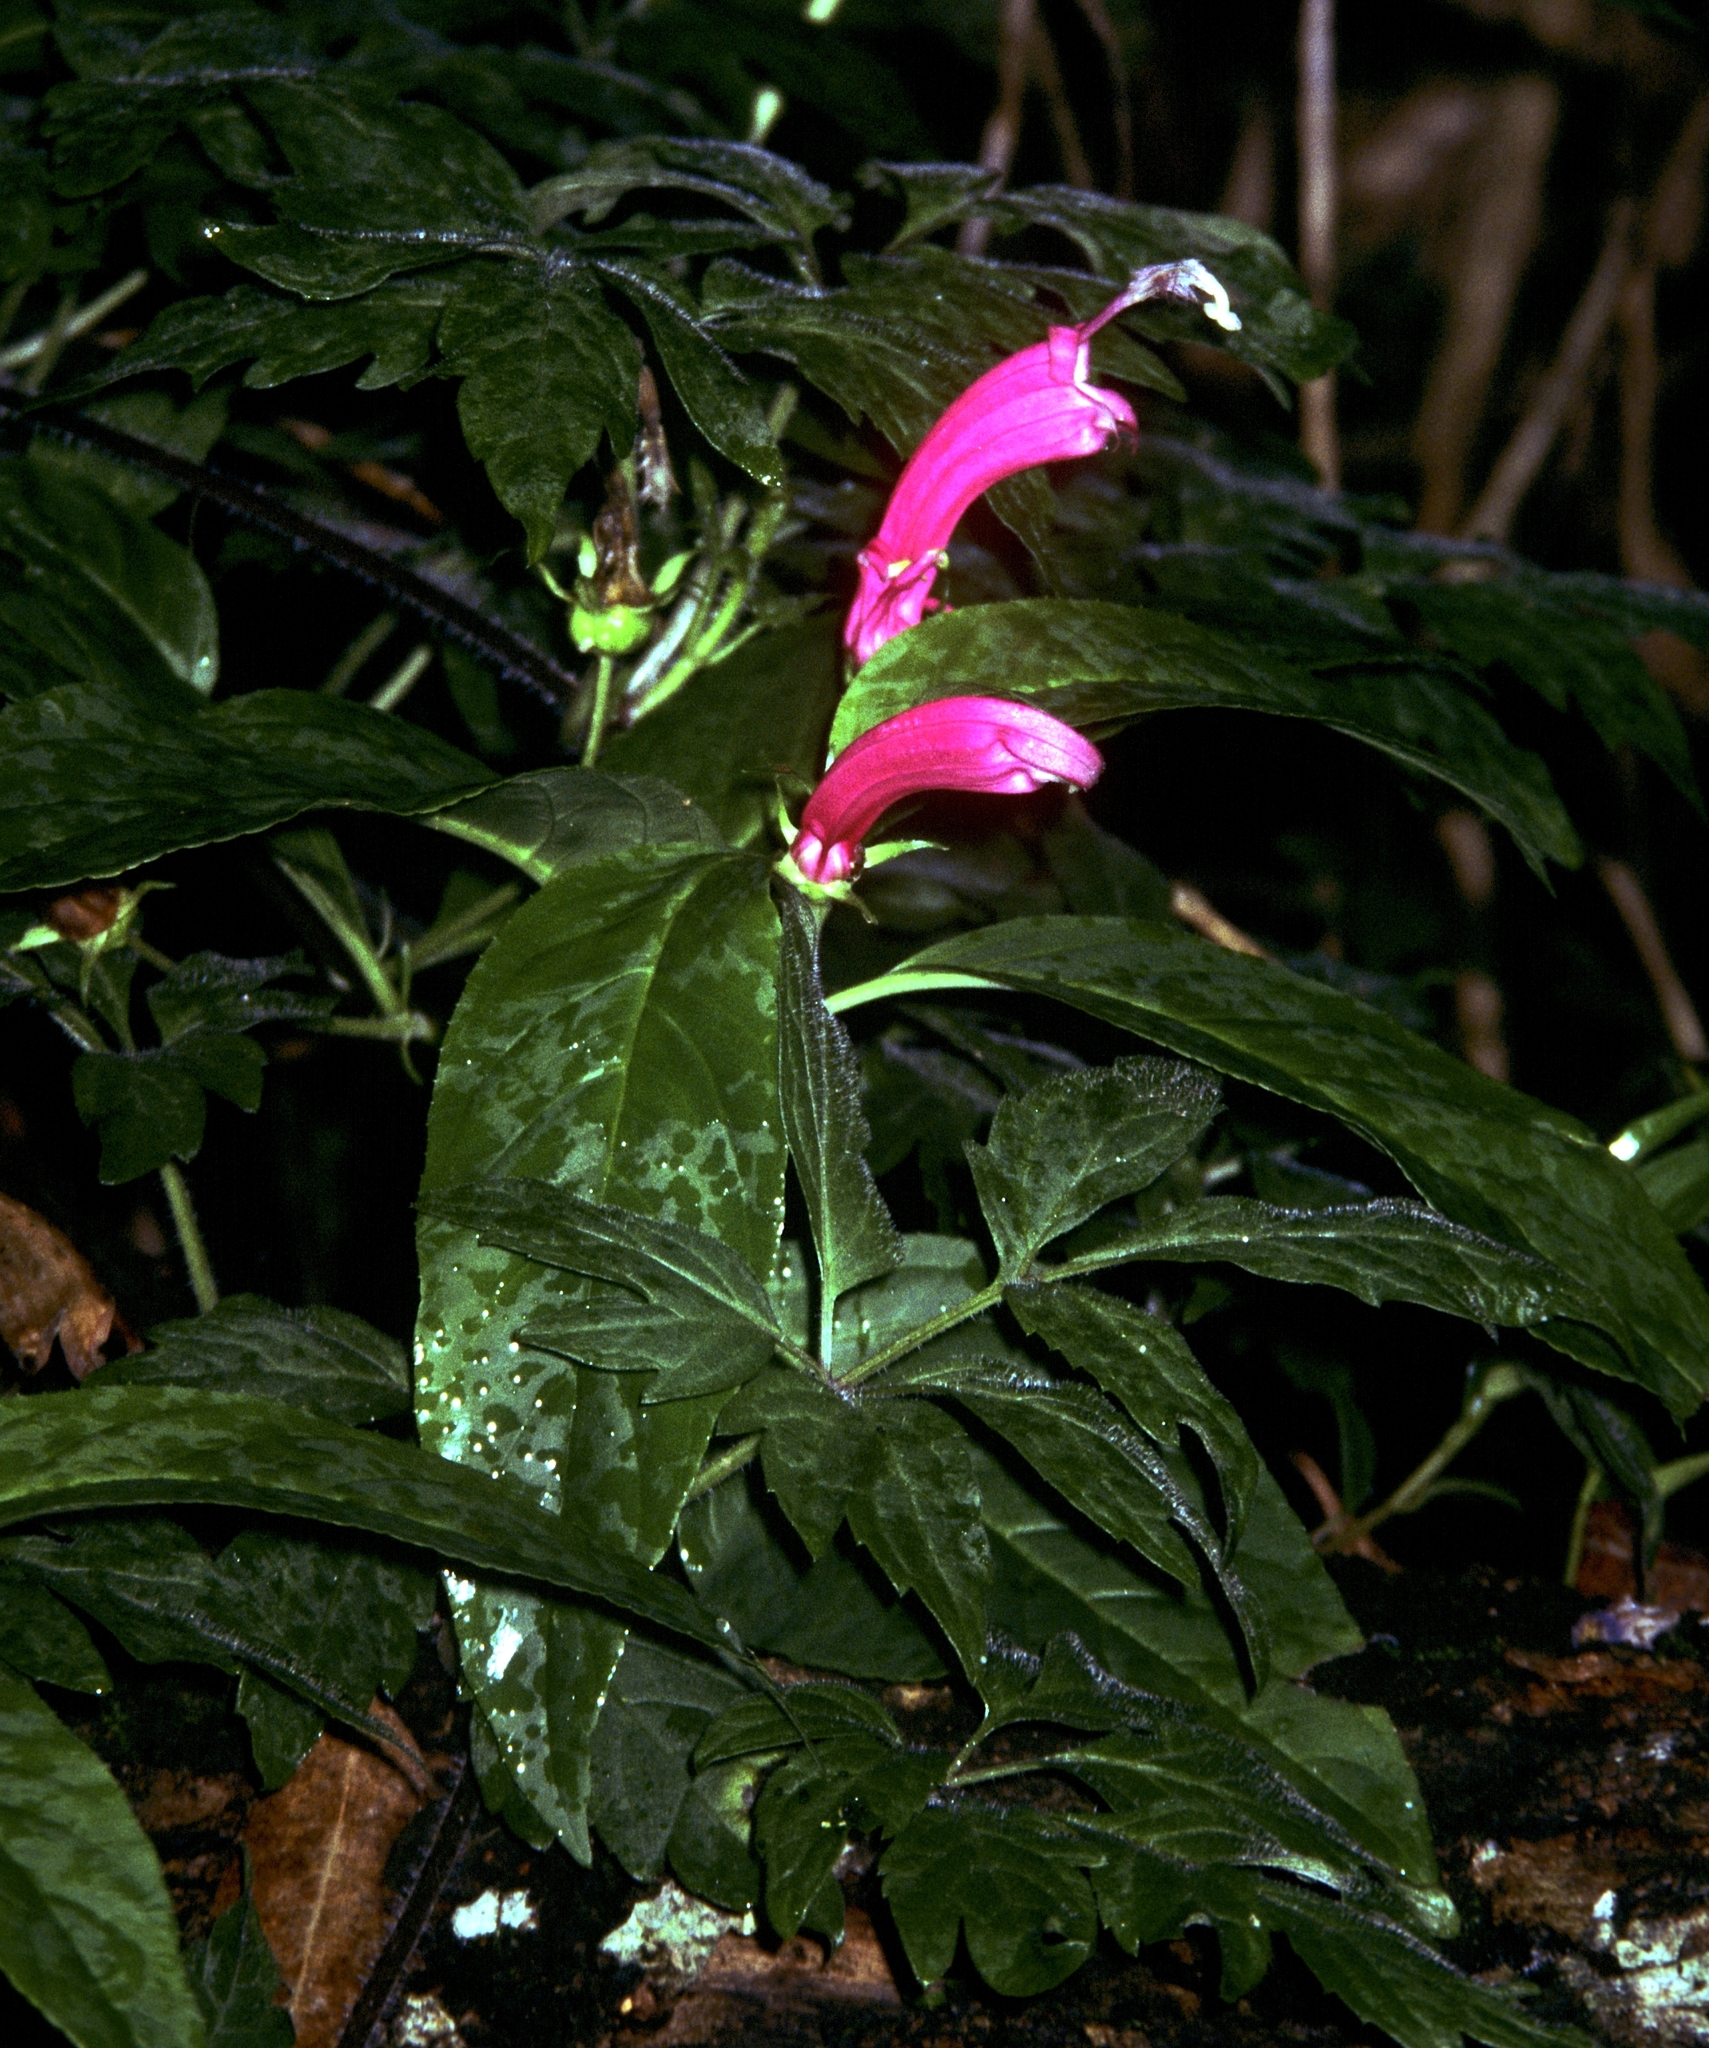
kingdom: Plantae
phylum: Tracheophyta
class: Magnoliopsida
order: Asterales
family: Campanulaceae
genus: Centropogon
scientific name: Centropogon cornutus
